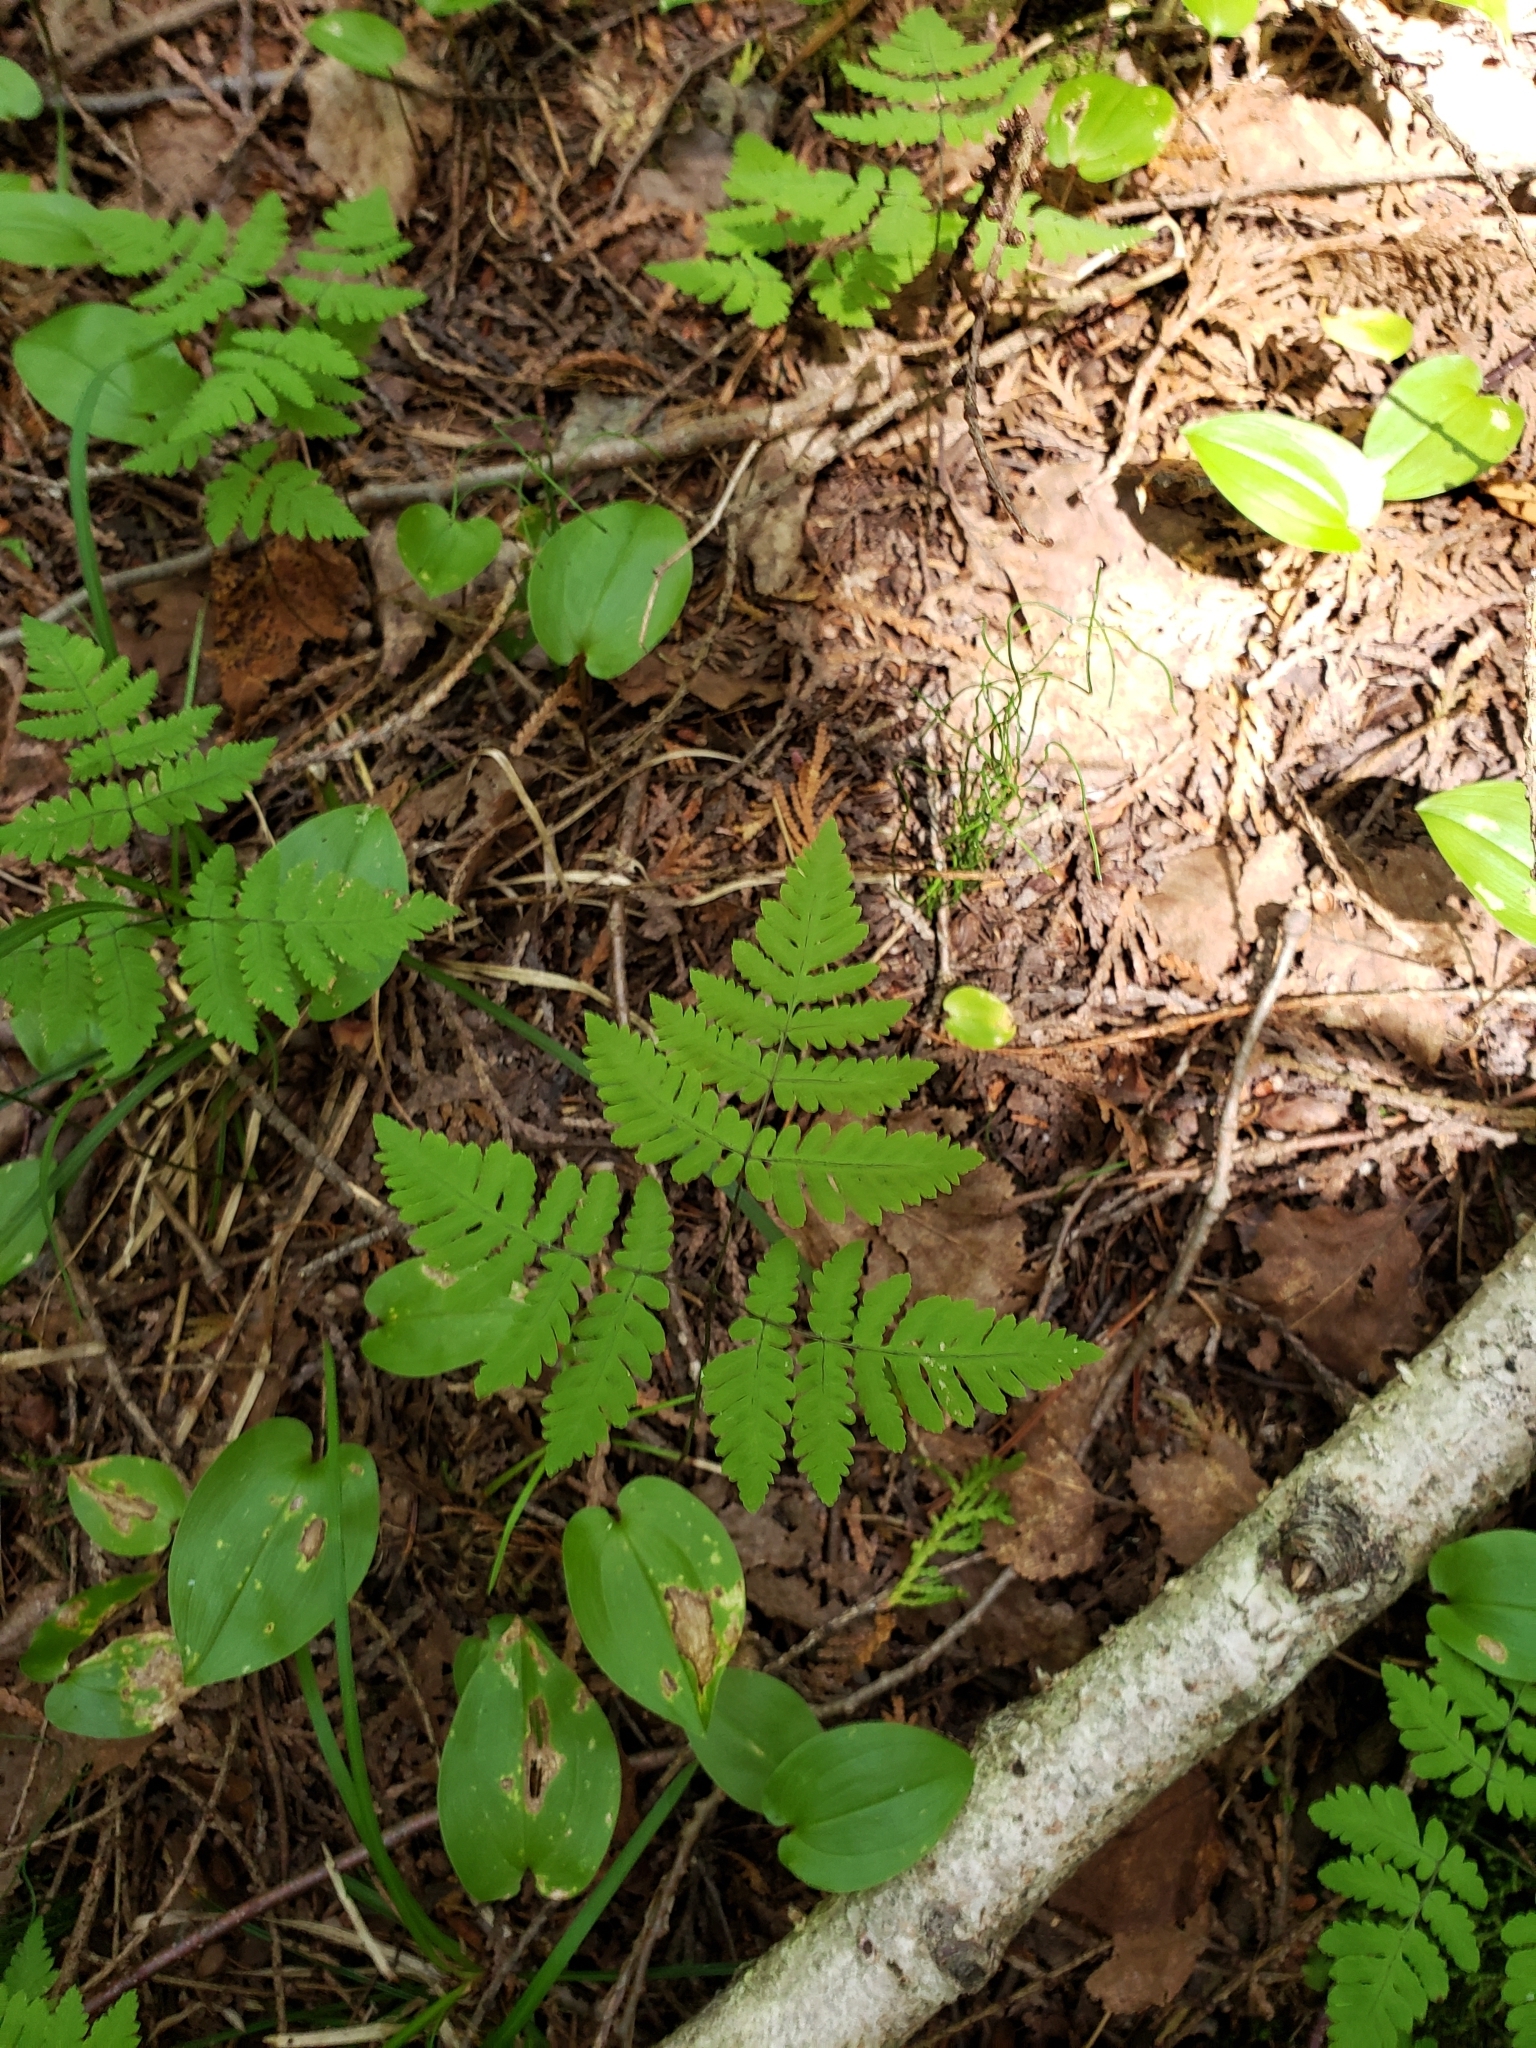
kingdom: Plantae
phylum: Tracheophyta
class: Polypodiopsida
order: Polypodiales
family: Cystopteridaceae
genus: Gymnocarpium
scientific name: Gymnocarpium dryopteris
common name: Oak fern
